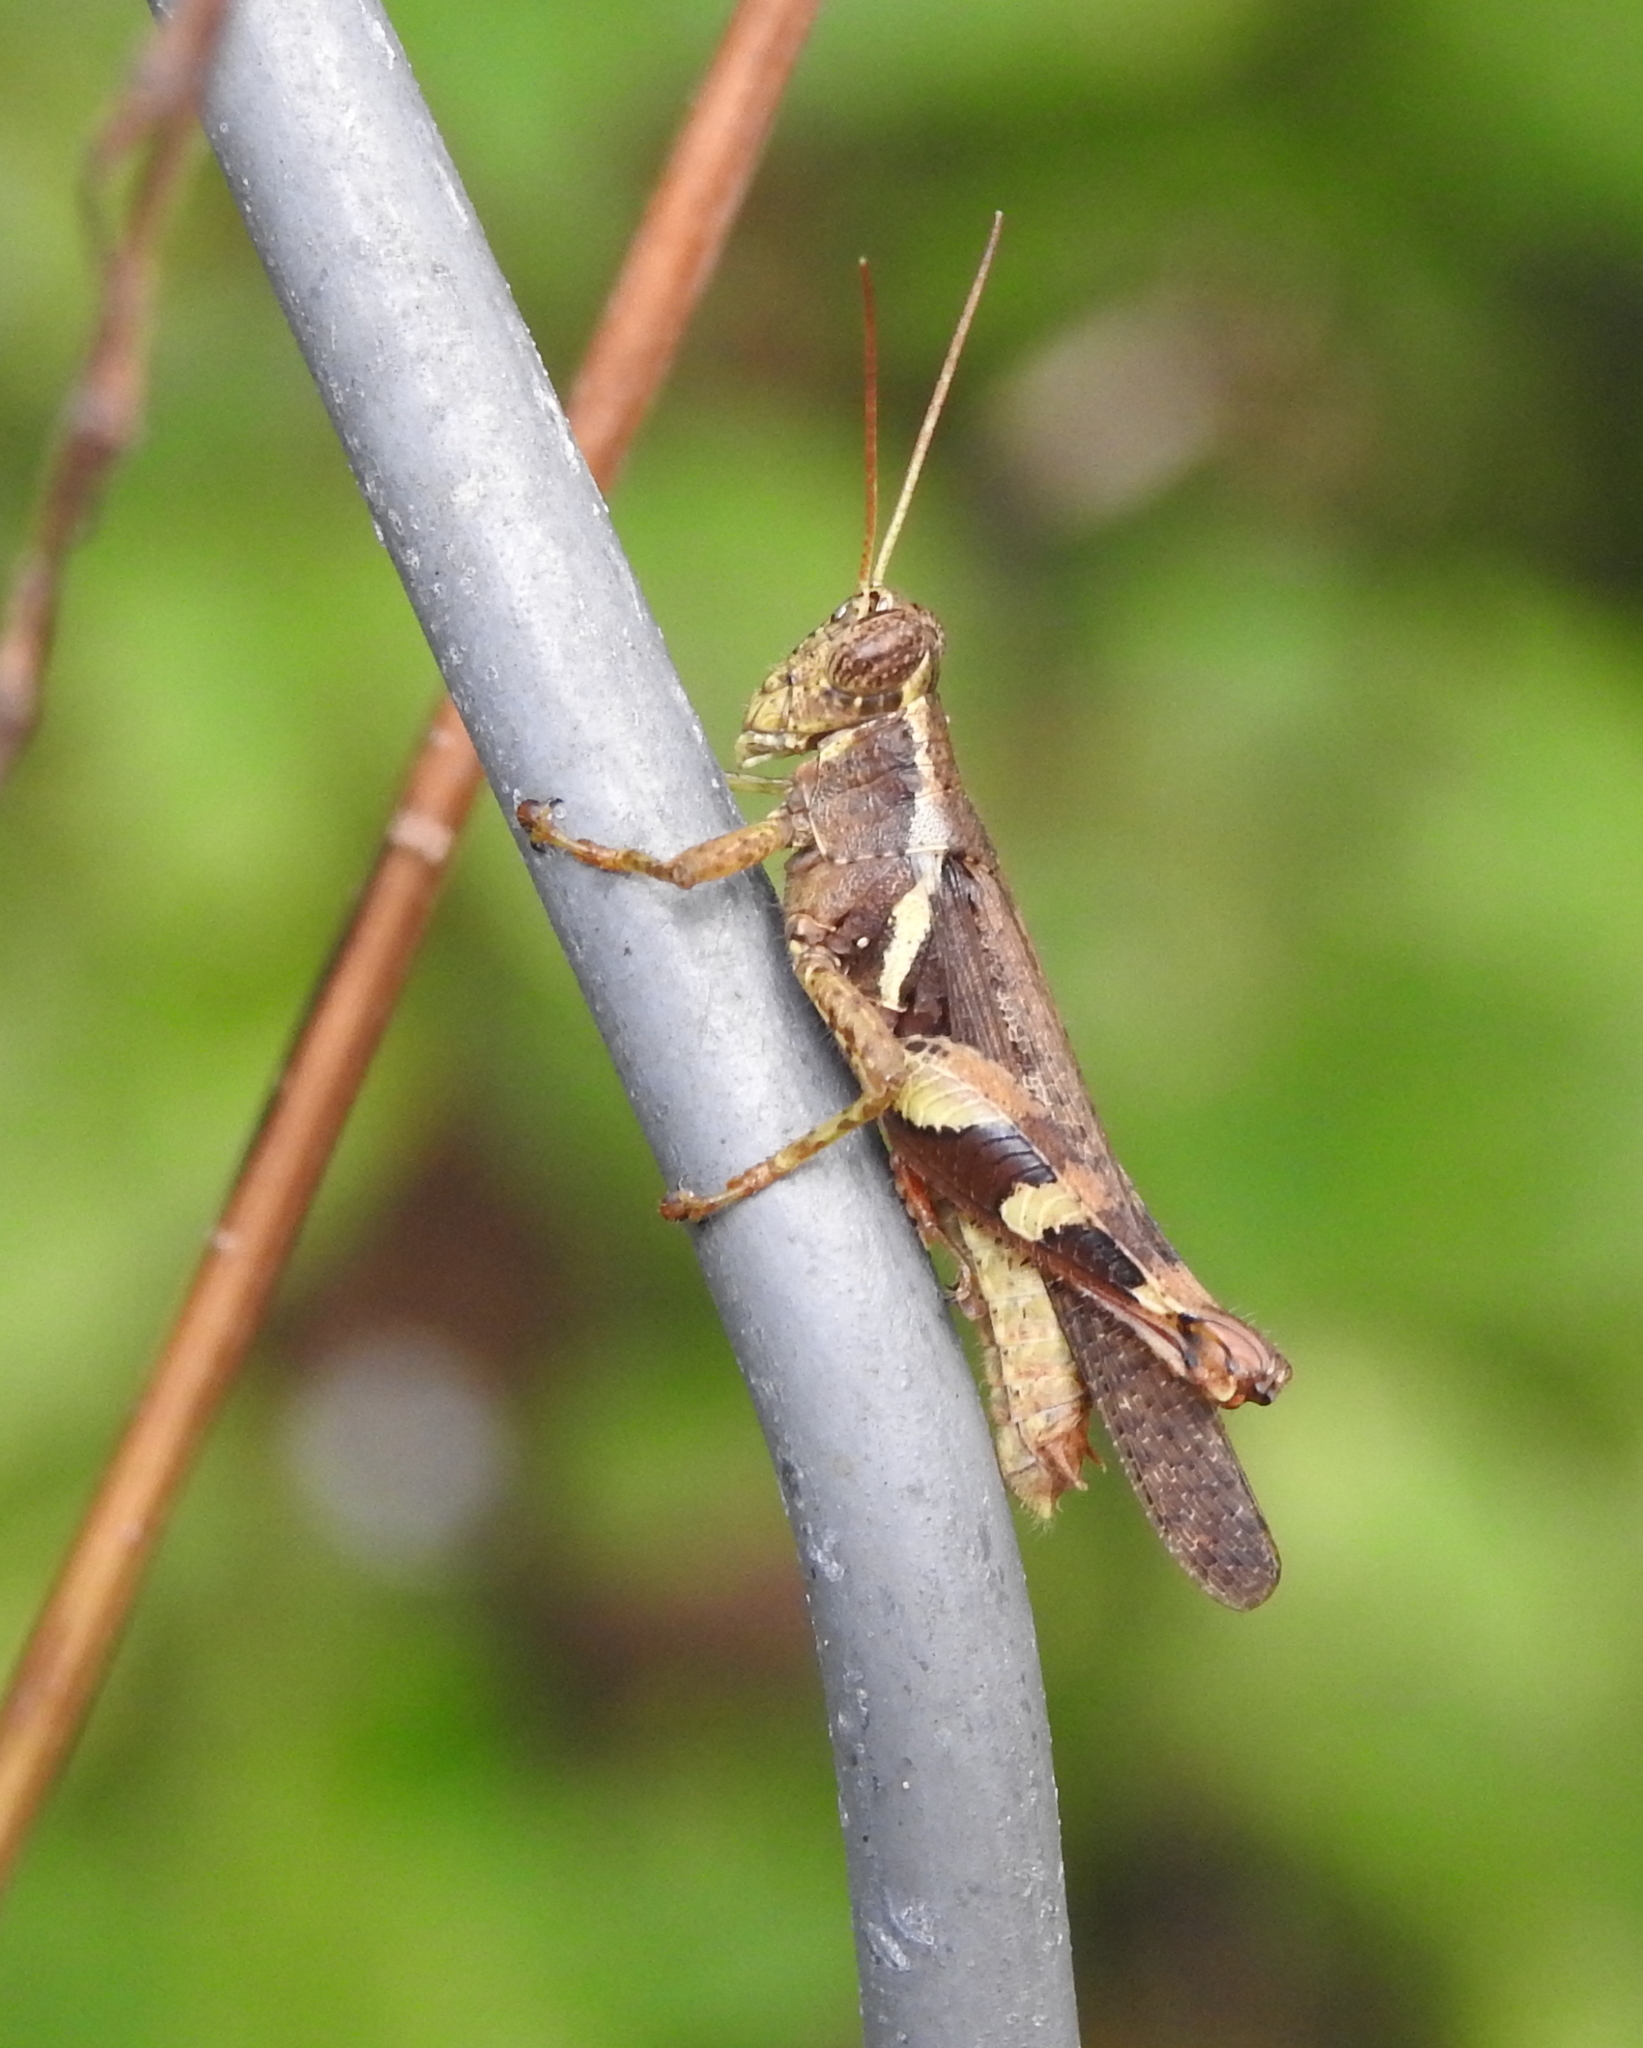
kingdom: Animalia
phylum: Arthropoda
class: Insecta
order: Orthoptera
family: Acrididae
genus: Xenocatantops
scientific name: Xenocatantops humile
